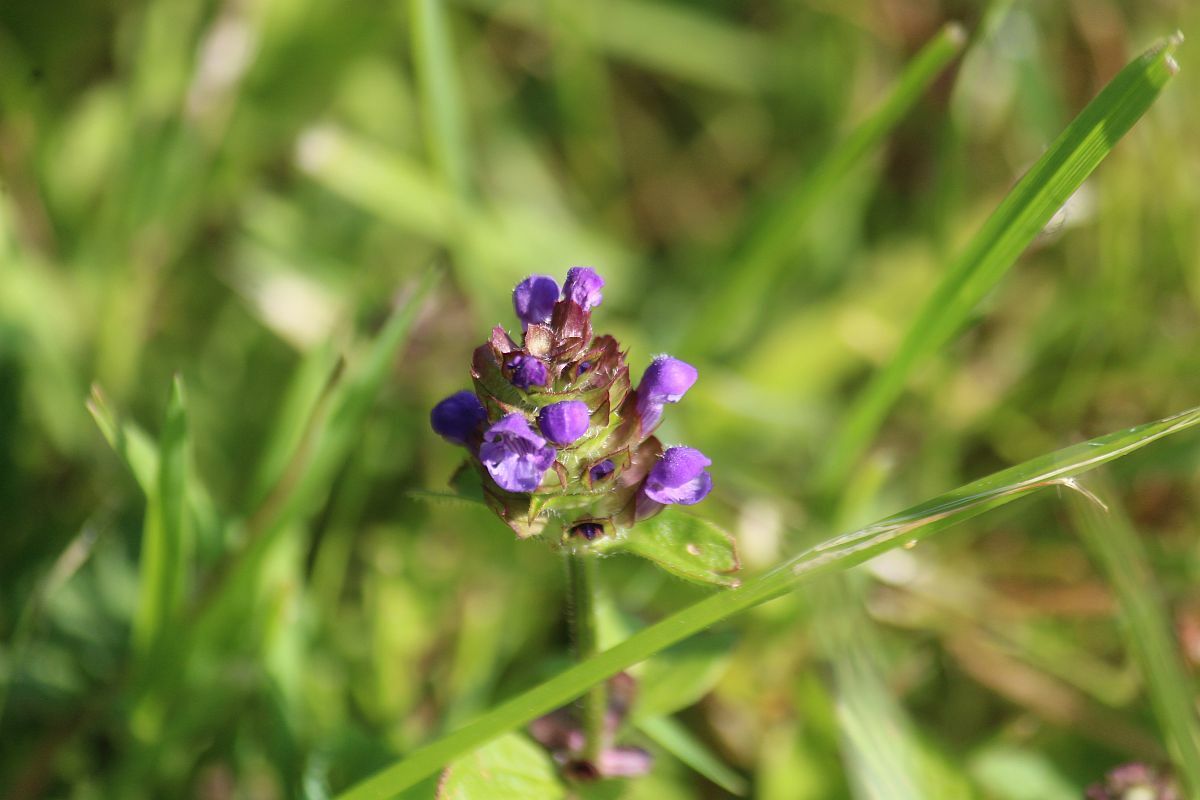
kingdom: Plantae
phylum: Tracheophyta
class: Magnoliopsida
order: Lamiales
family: Lamiaceae
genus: Prunella
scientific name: Prunella vulgaris
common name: Heal-all
